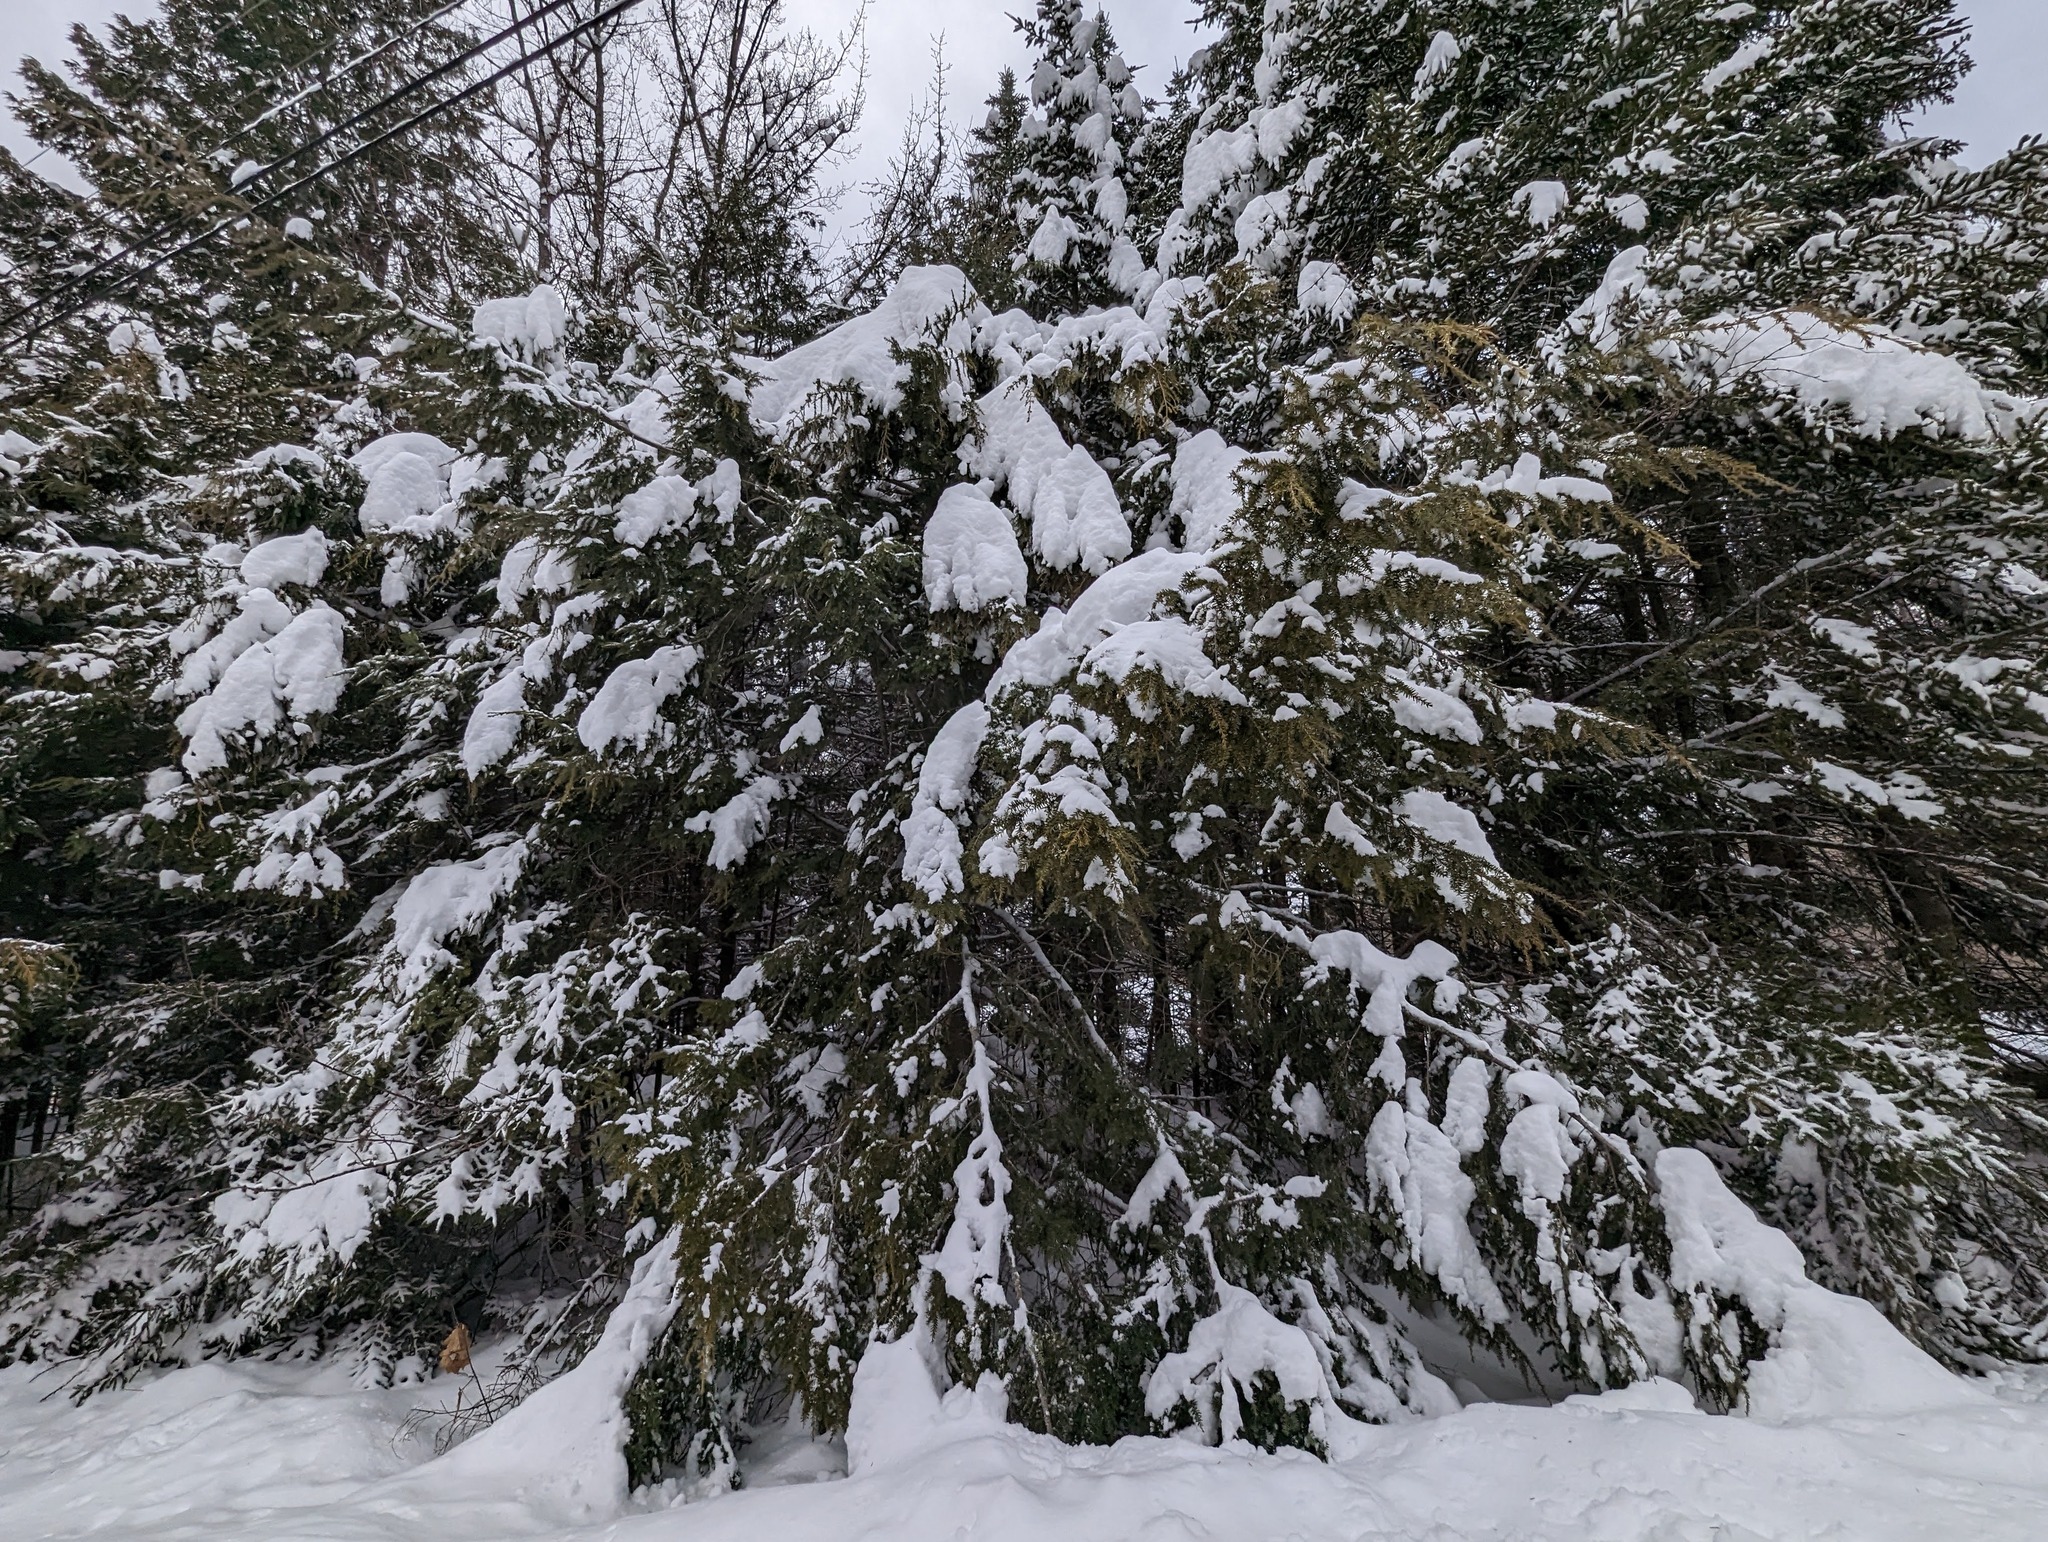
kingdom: Plantae
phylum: Tracheophyta
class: Pinopsida
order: Pinales
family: Pinaceae
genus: Tsuga
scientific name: Tsuga canadensis
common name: Eastern hemlock
